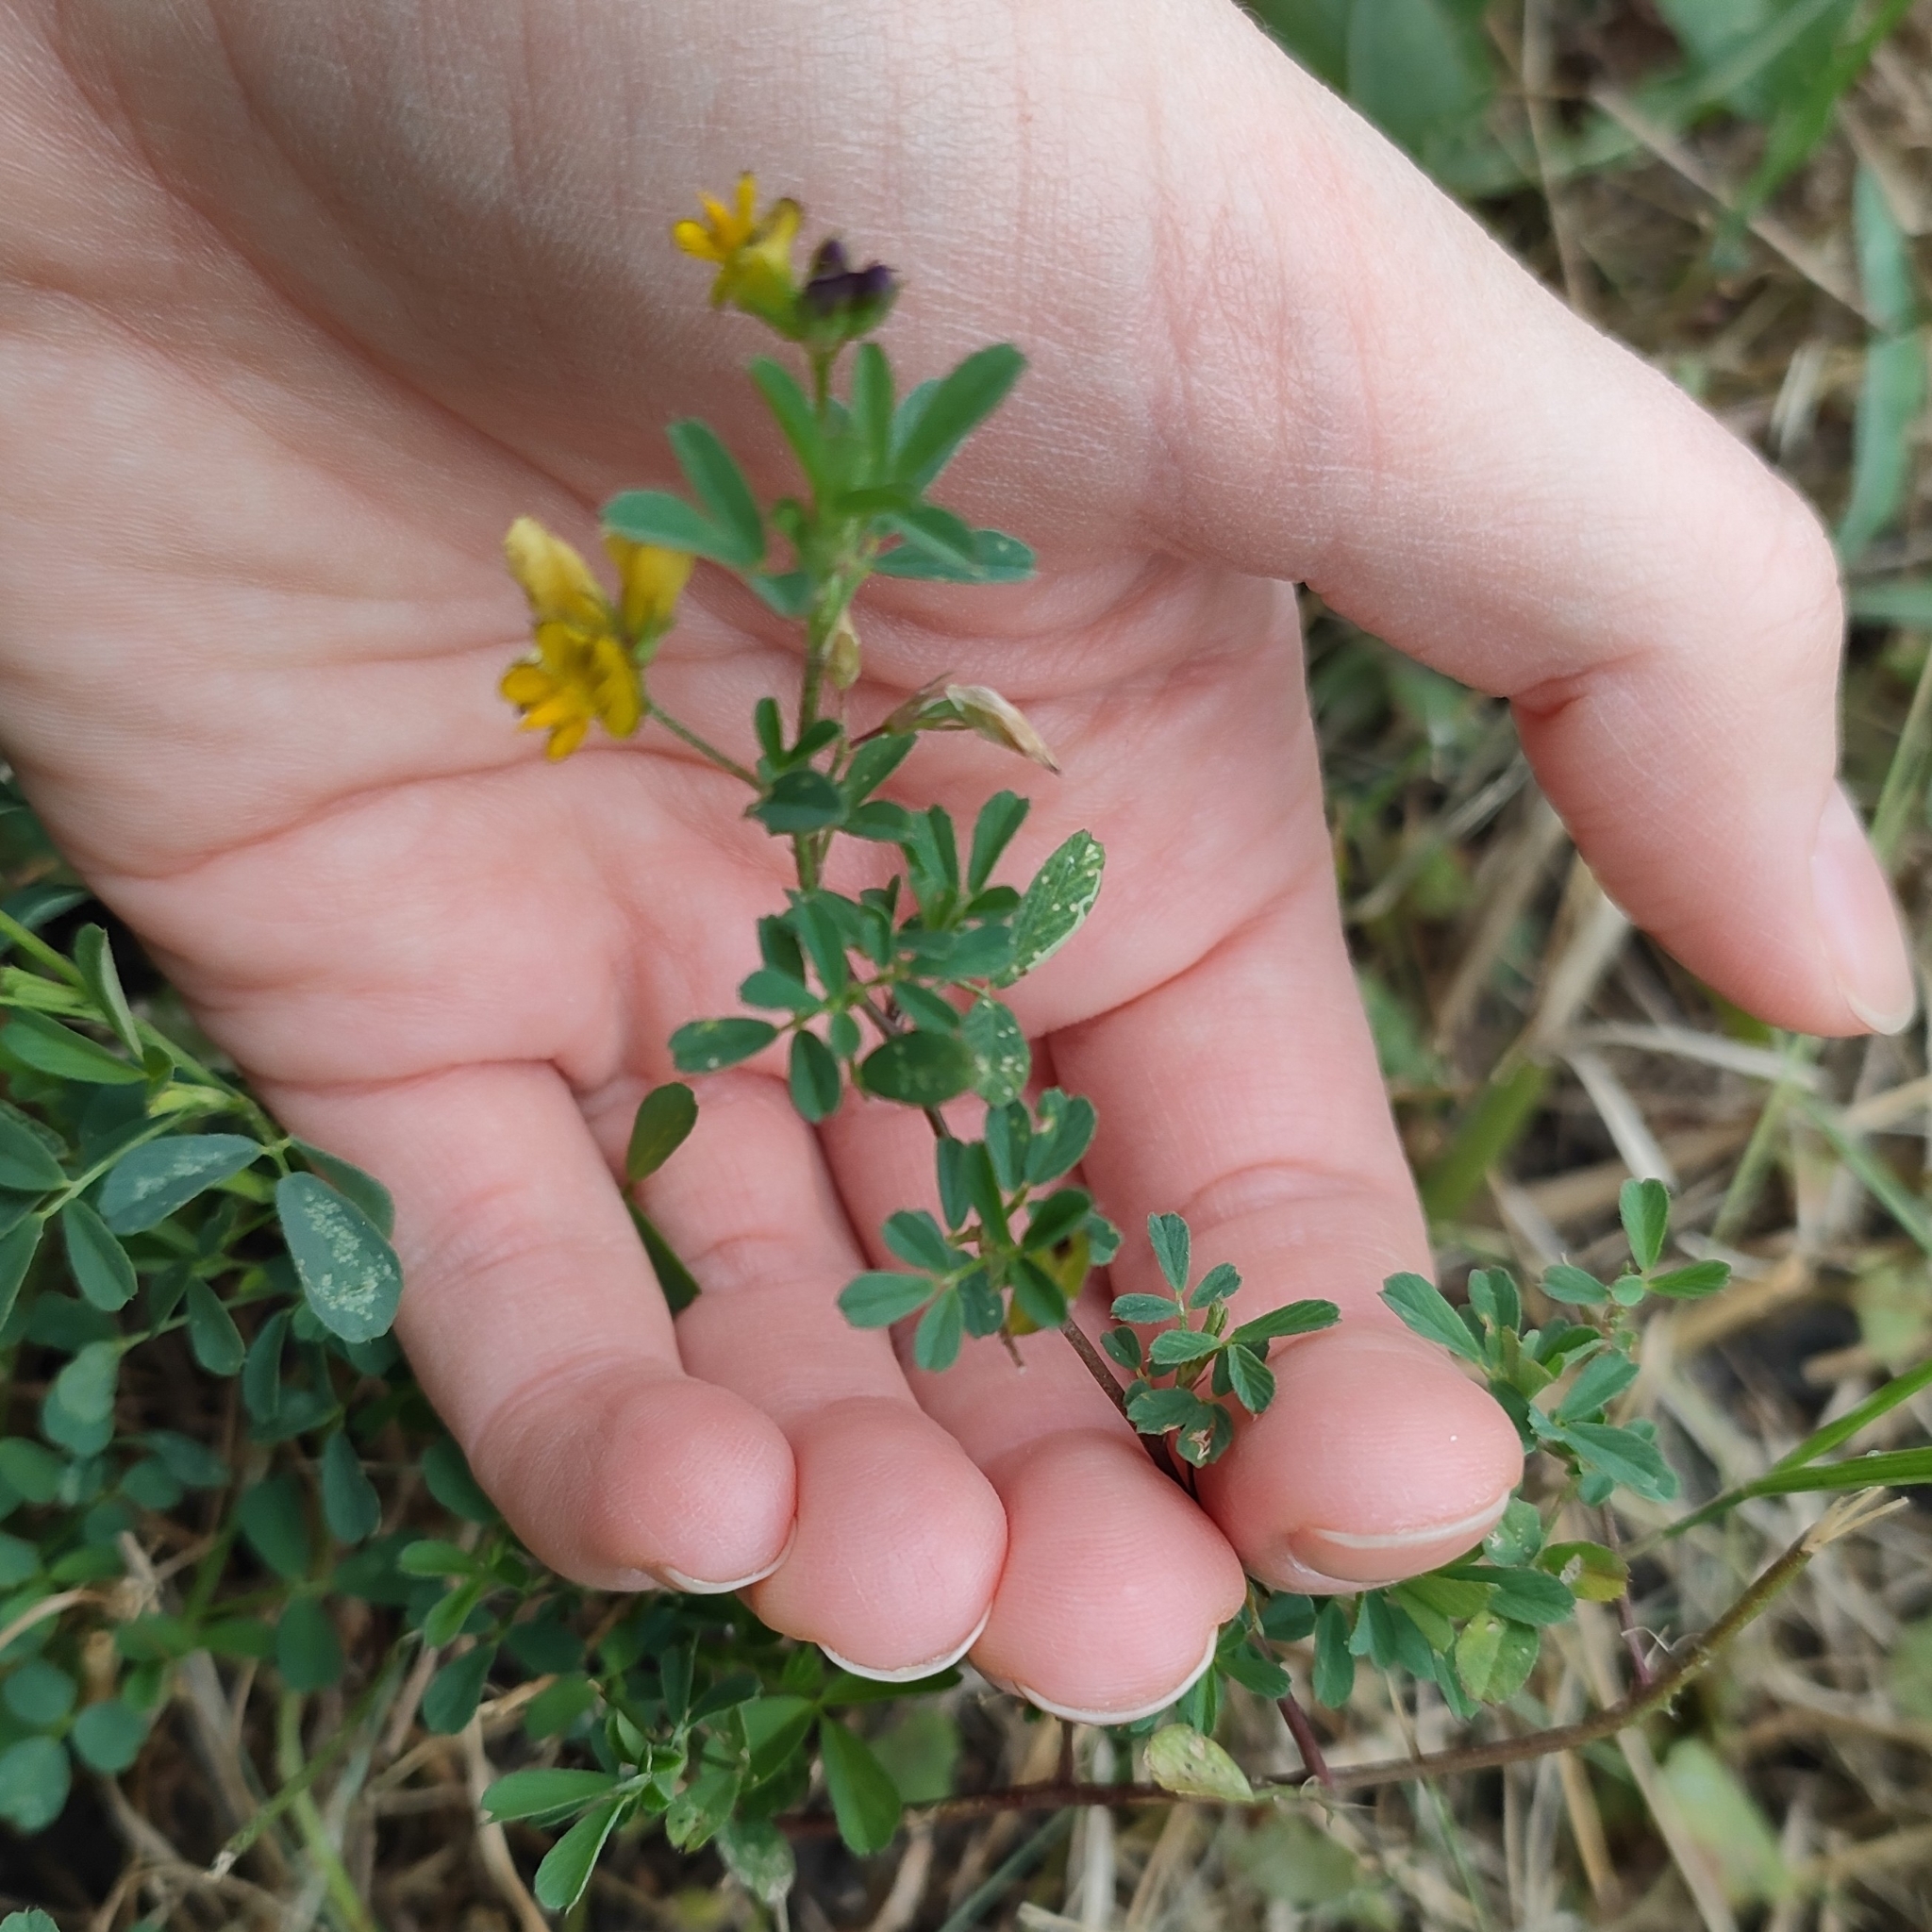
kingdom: Plantae
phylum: Tracheophyta
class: Magnoliopsida
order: Fabales
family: Fabaceae
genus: Medicago
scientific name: Medicago falcata
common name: Sickle medick
